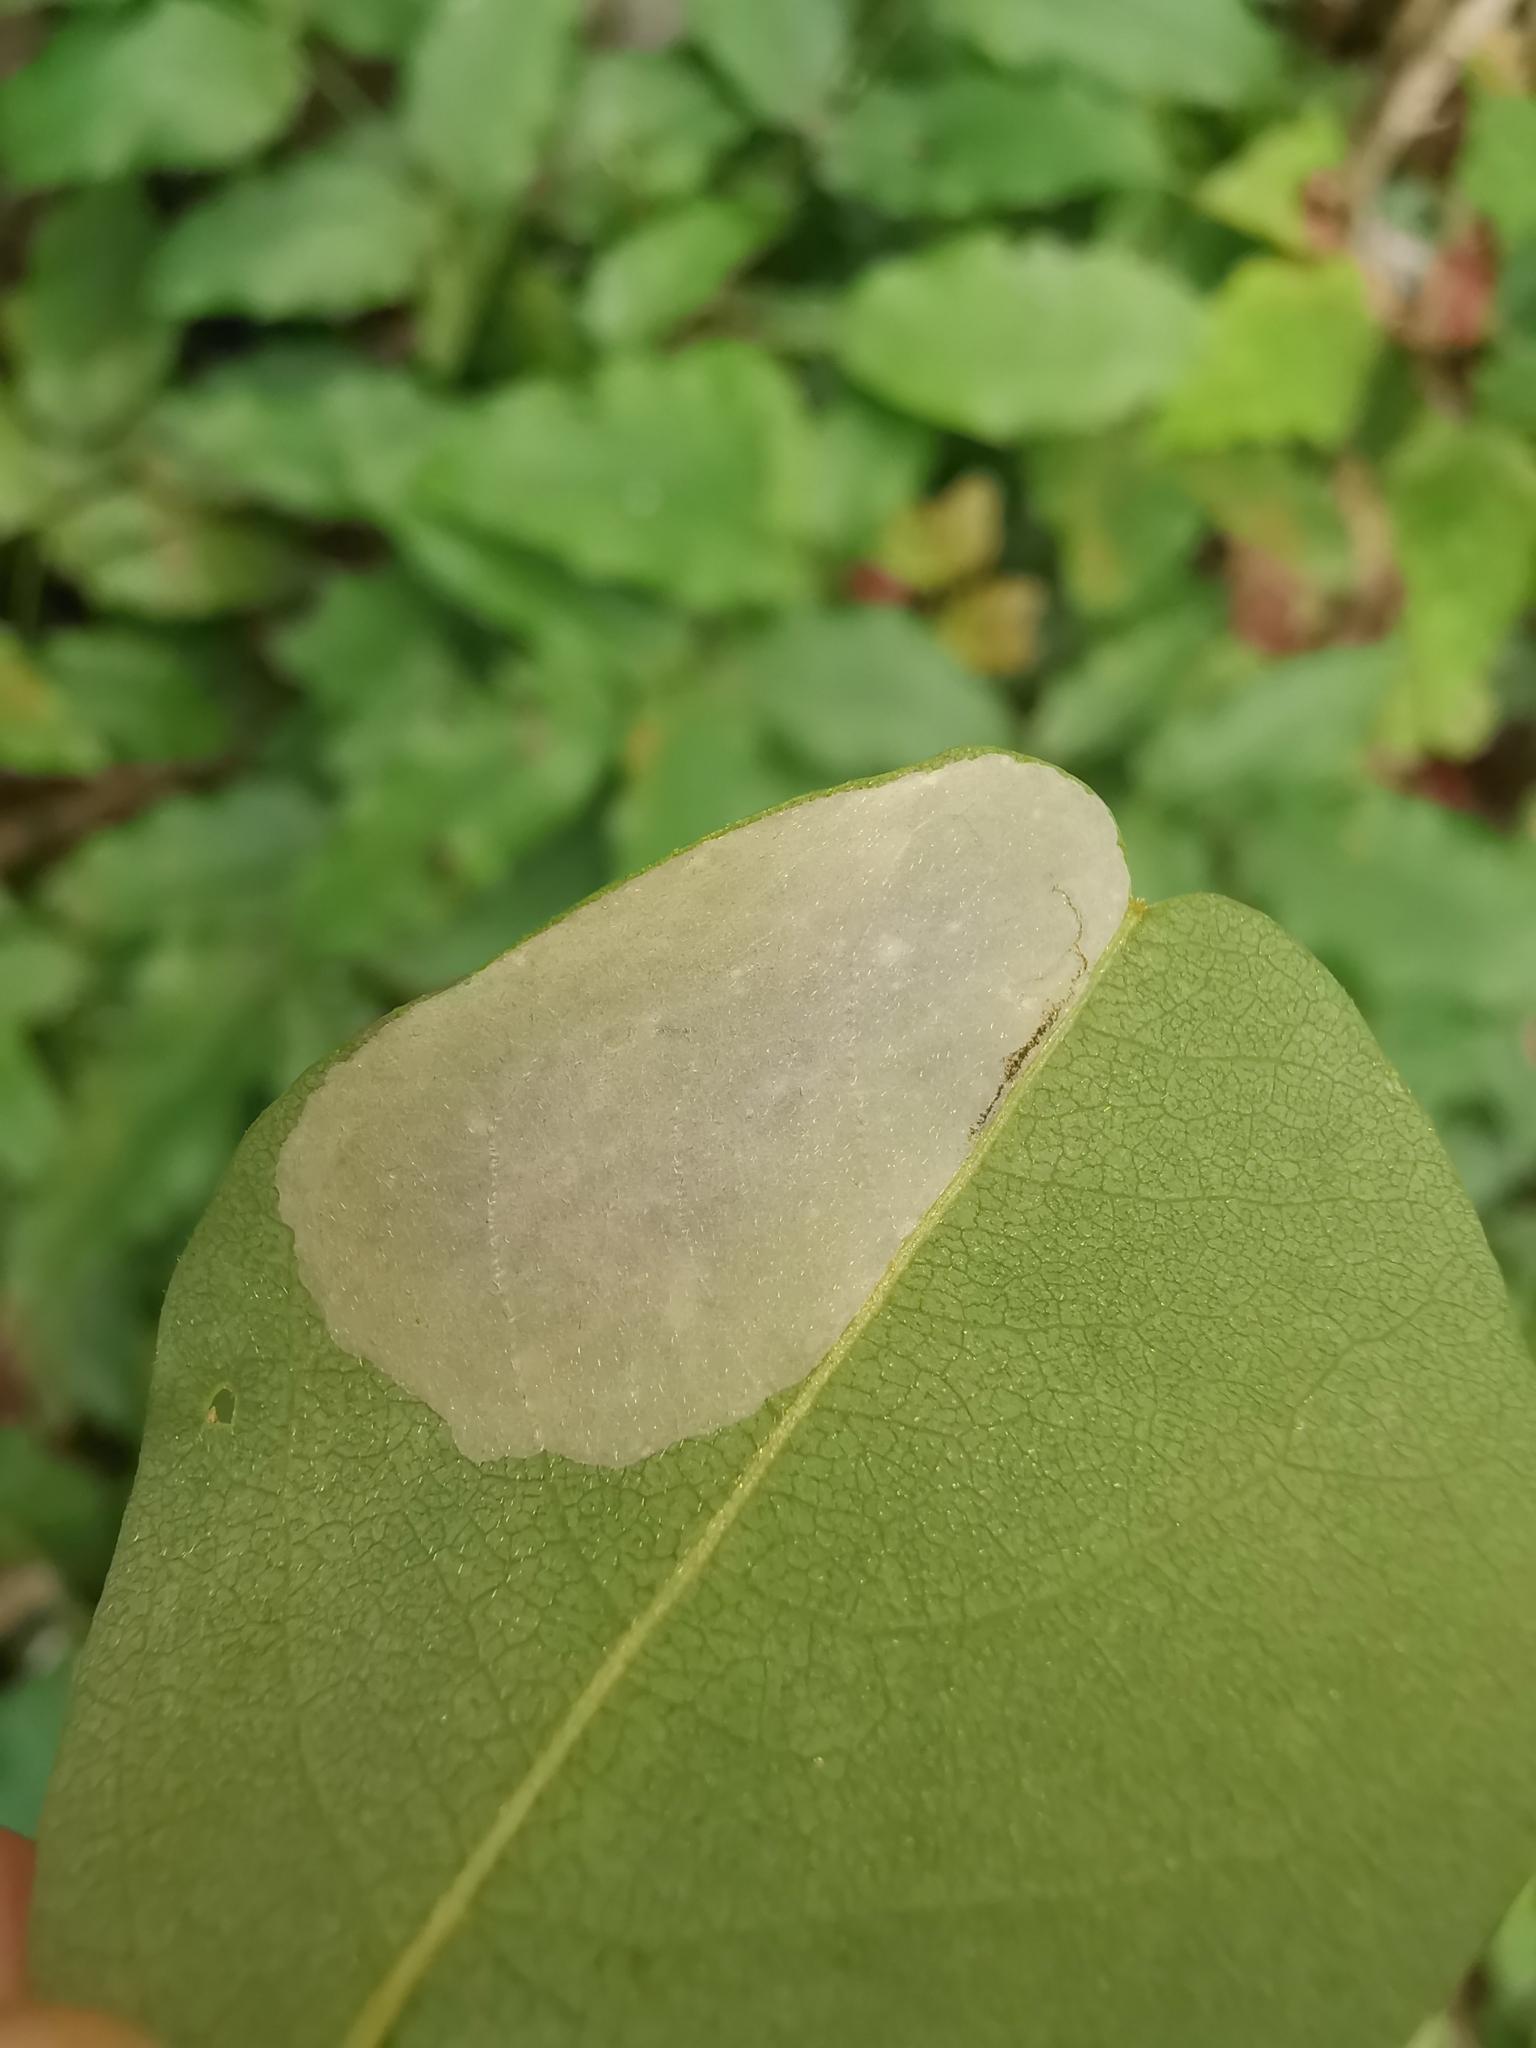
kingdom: Animalia
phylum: Arthropoda
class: Insecta
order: Lepidoptera
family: Gracillariidae
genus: Macrosaccus
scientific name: Macrosaccus robiniella
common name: Leaf blotch miner moth
